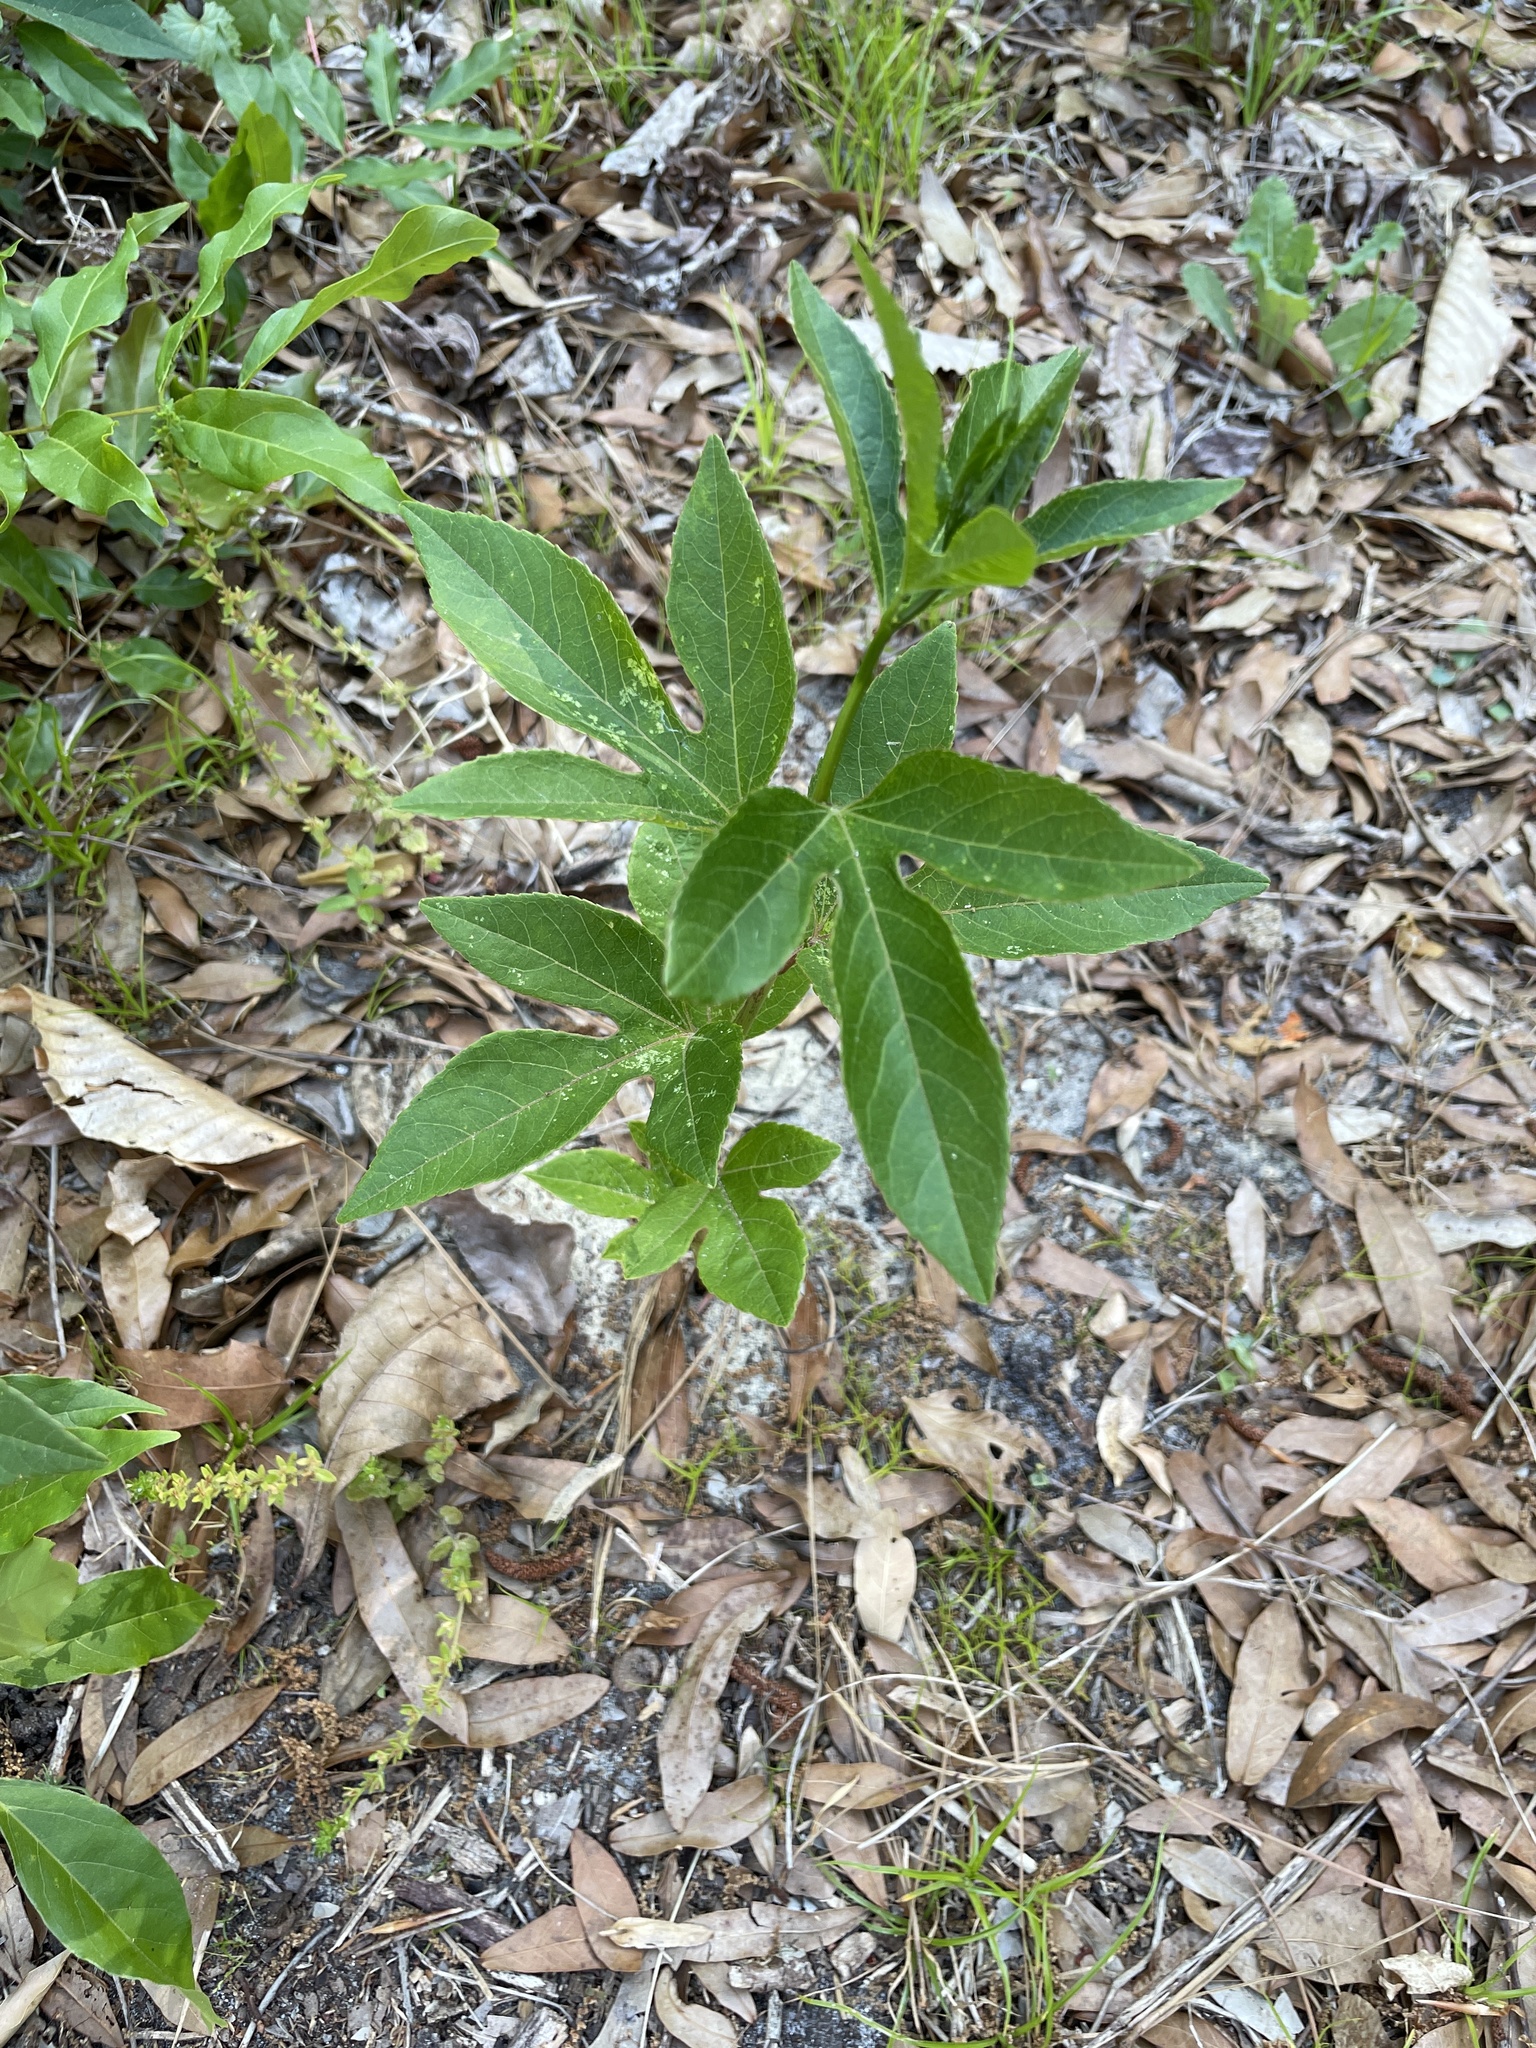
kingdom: Plantae
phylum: Tracheophyta
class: Magnoliopsida
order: Malpighiales
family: Passifloraceae
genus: Passiflora
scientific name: Passiflora incarnata
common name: Apricot-vine
